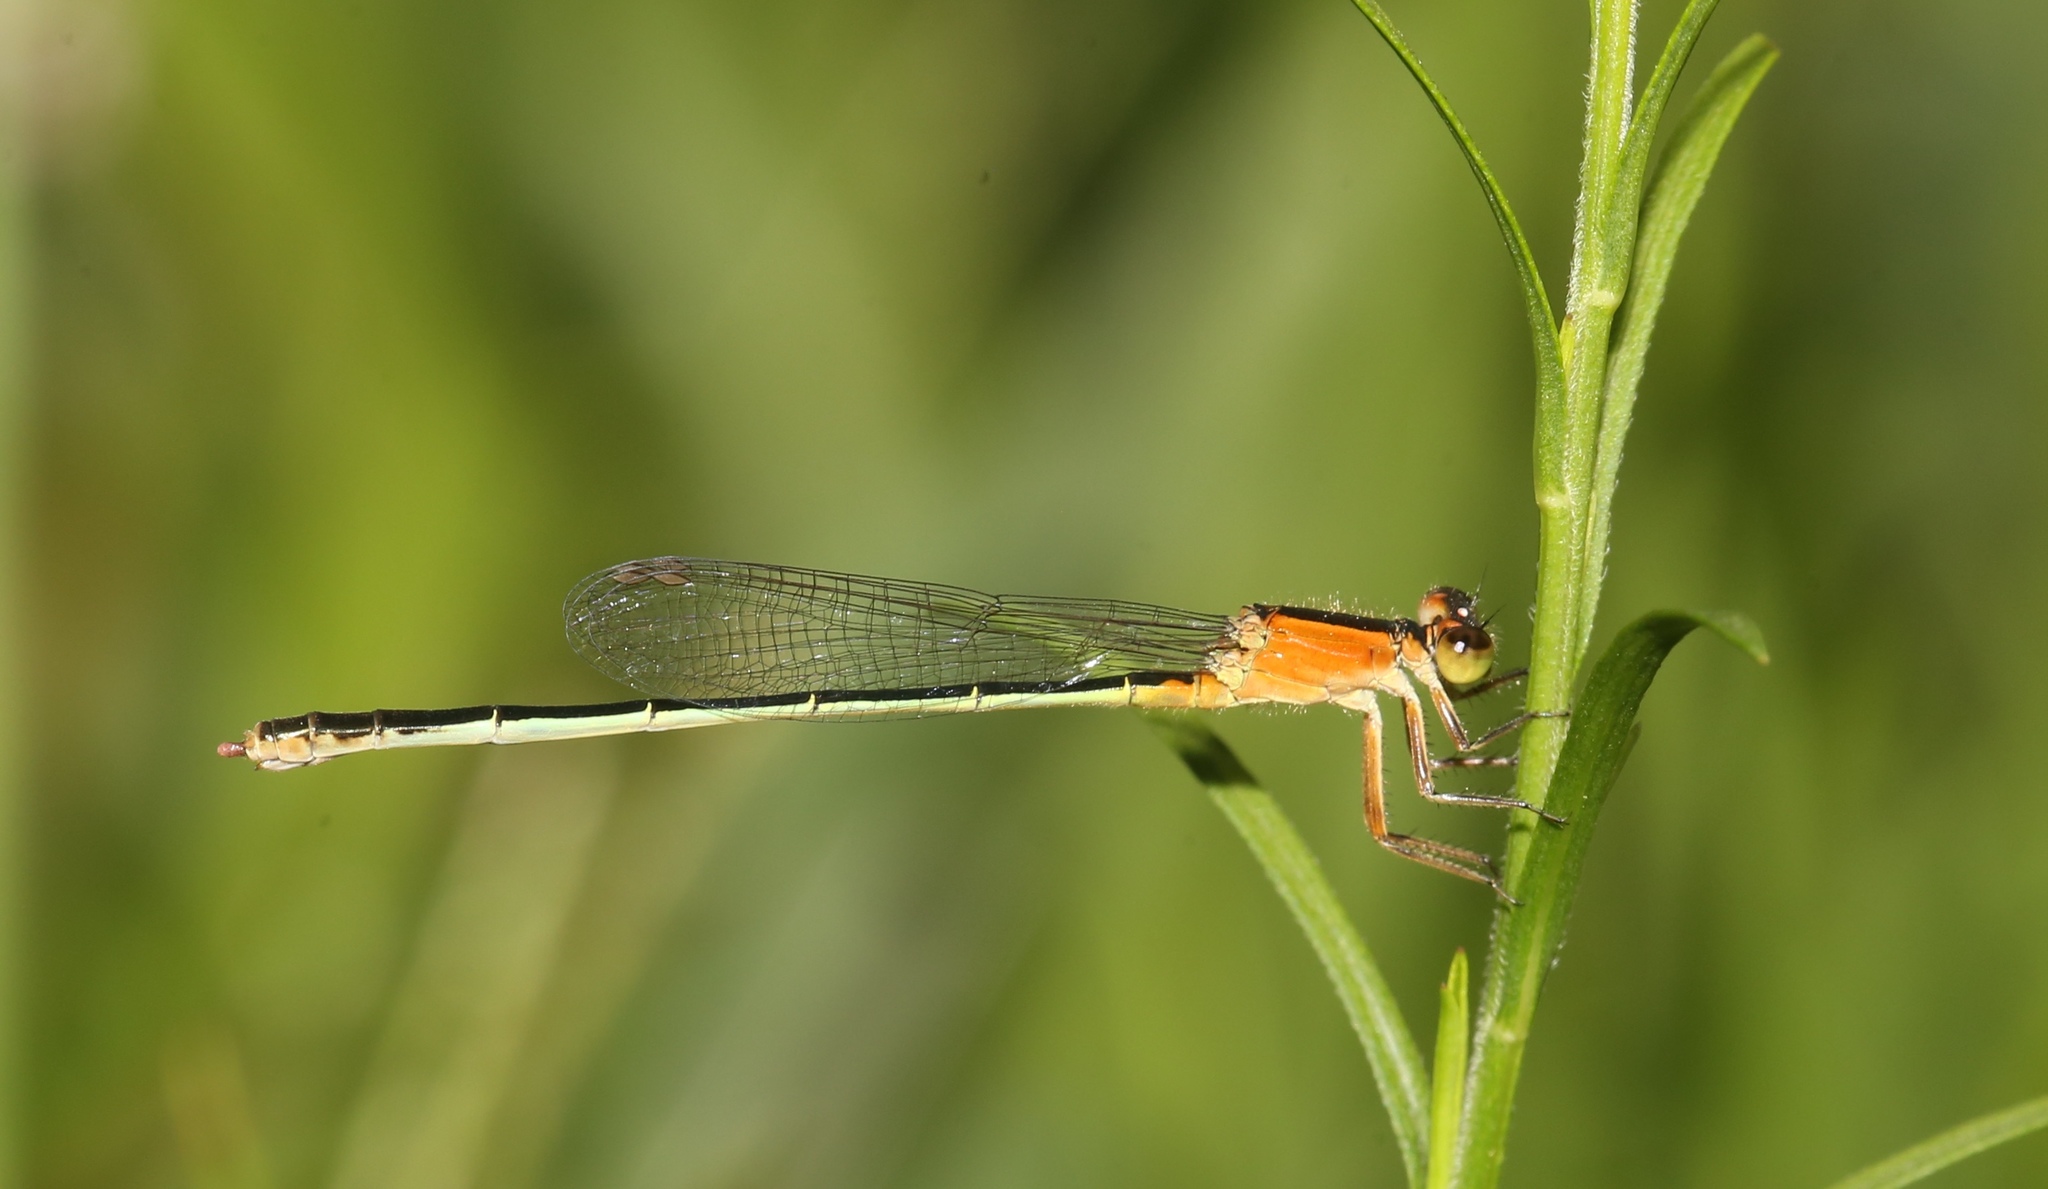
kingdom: Animalia
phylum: Arthropoda
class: Insecta
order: Odonata
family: Coenagrionidae
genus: Ischnura
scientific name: Ischnura ramburii
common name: Rambur's forktail
